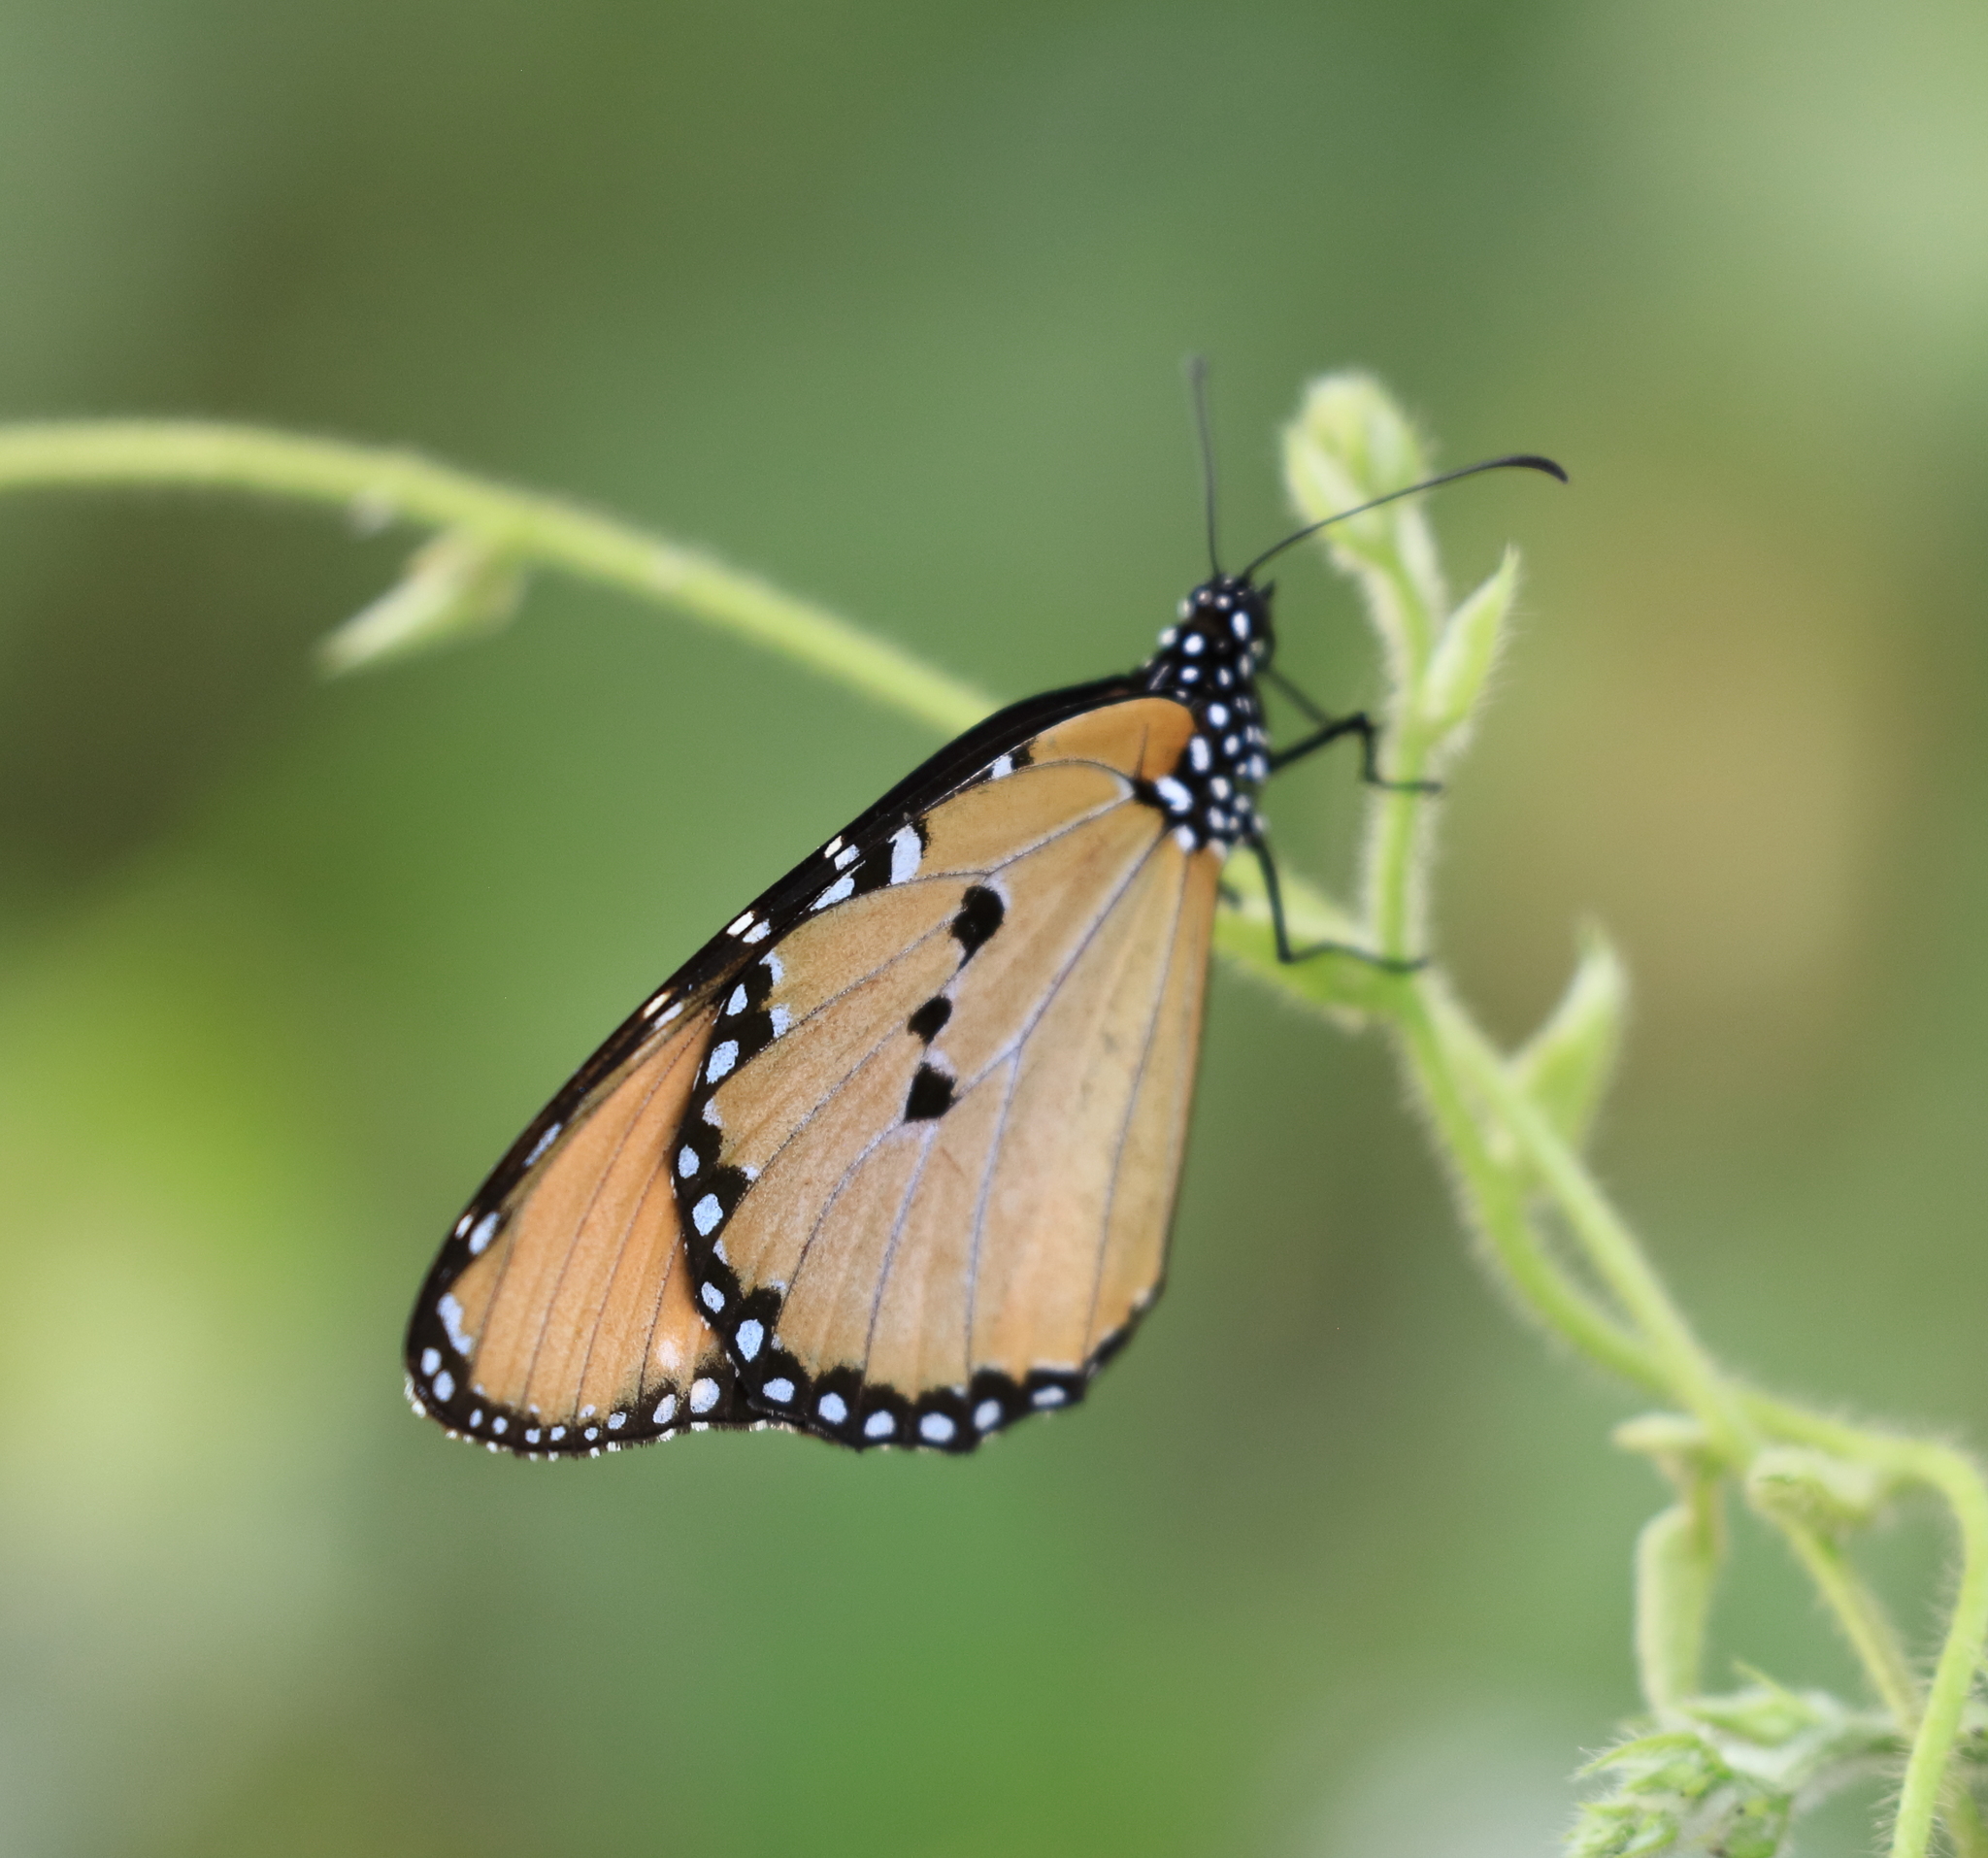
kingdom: Animalia
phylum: Arthropoda
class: Insecta
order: Lepidoptera
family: Nymphalidae
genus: Danaus
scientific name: Danaus chrysippus
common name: Plain tiger
